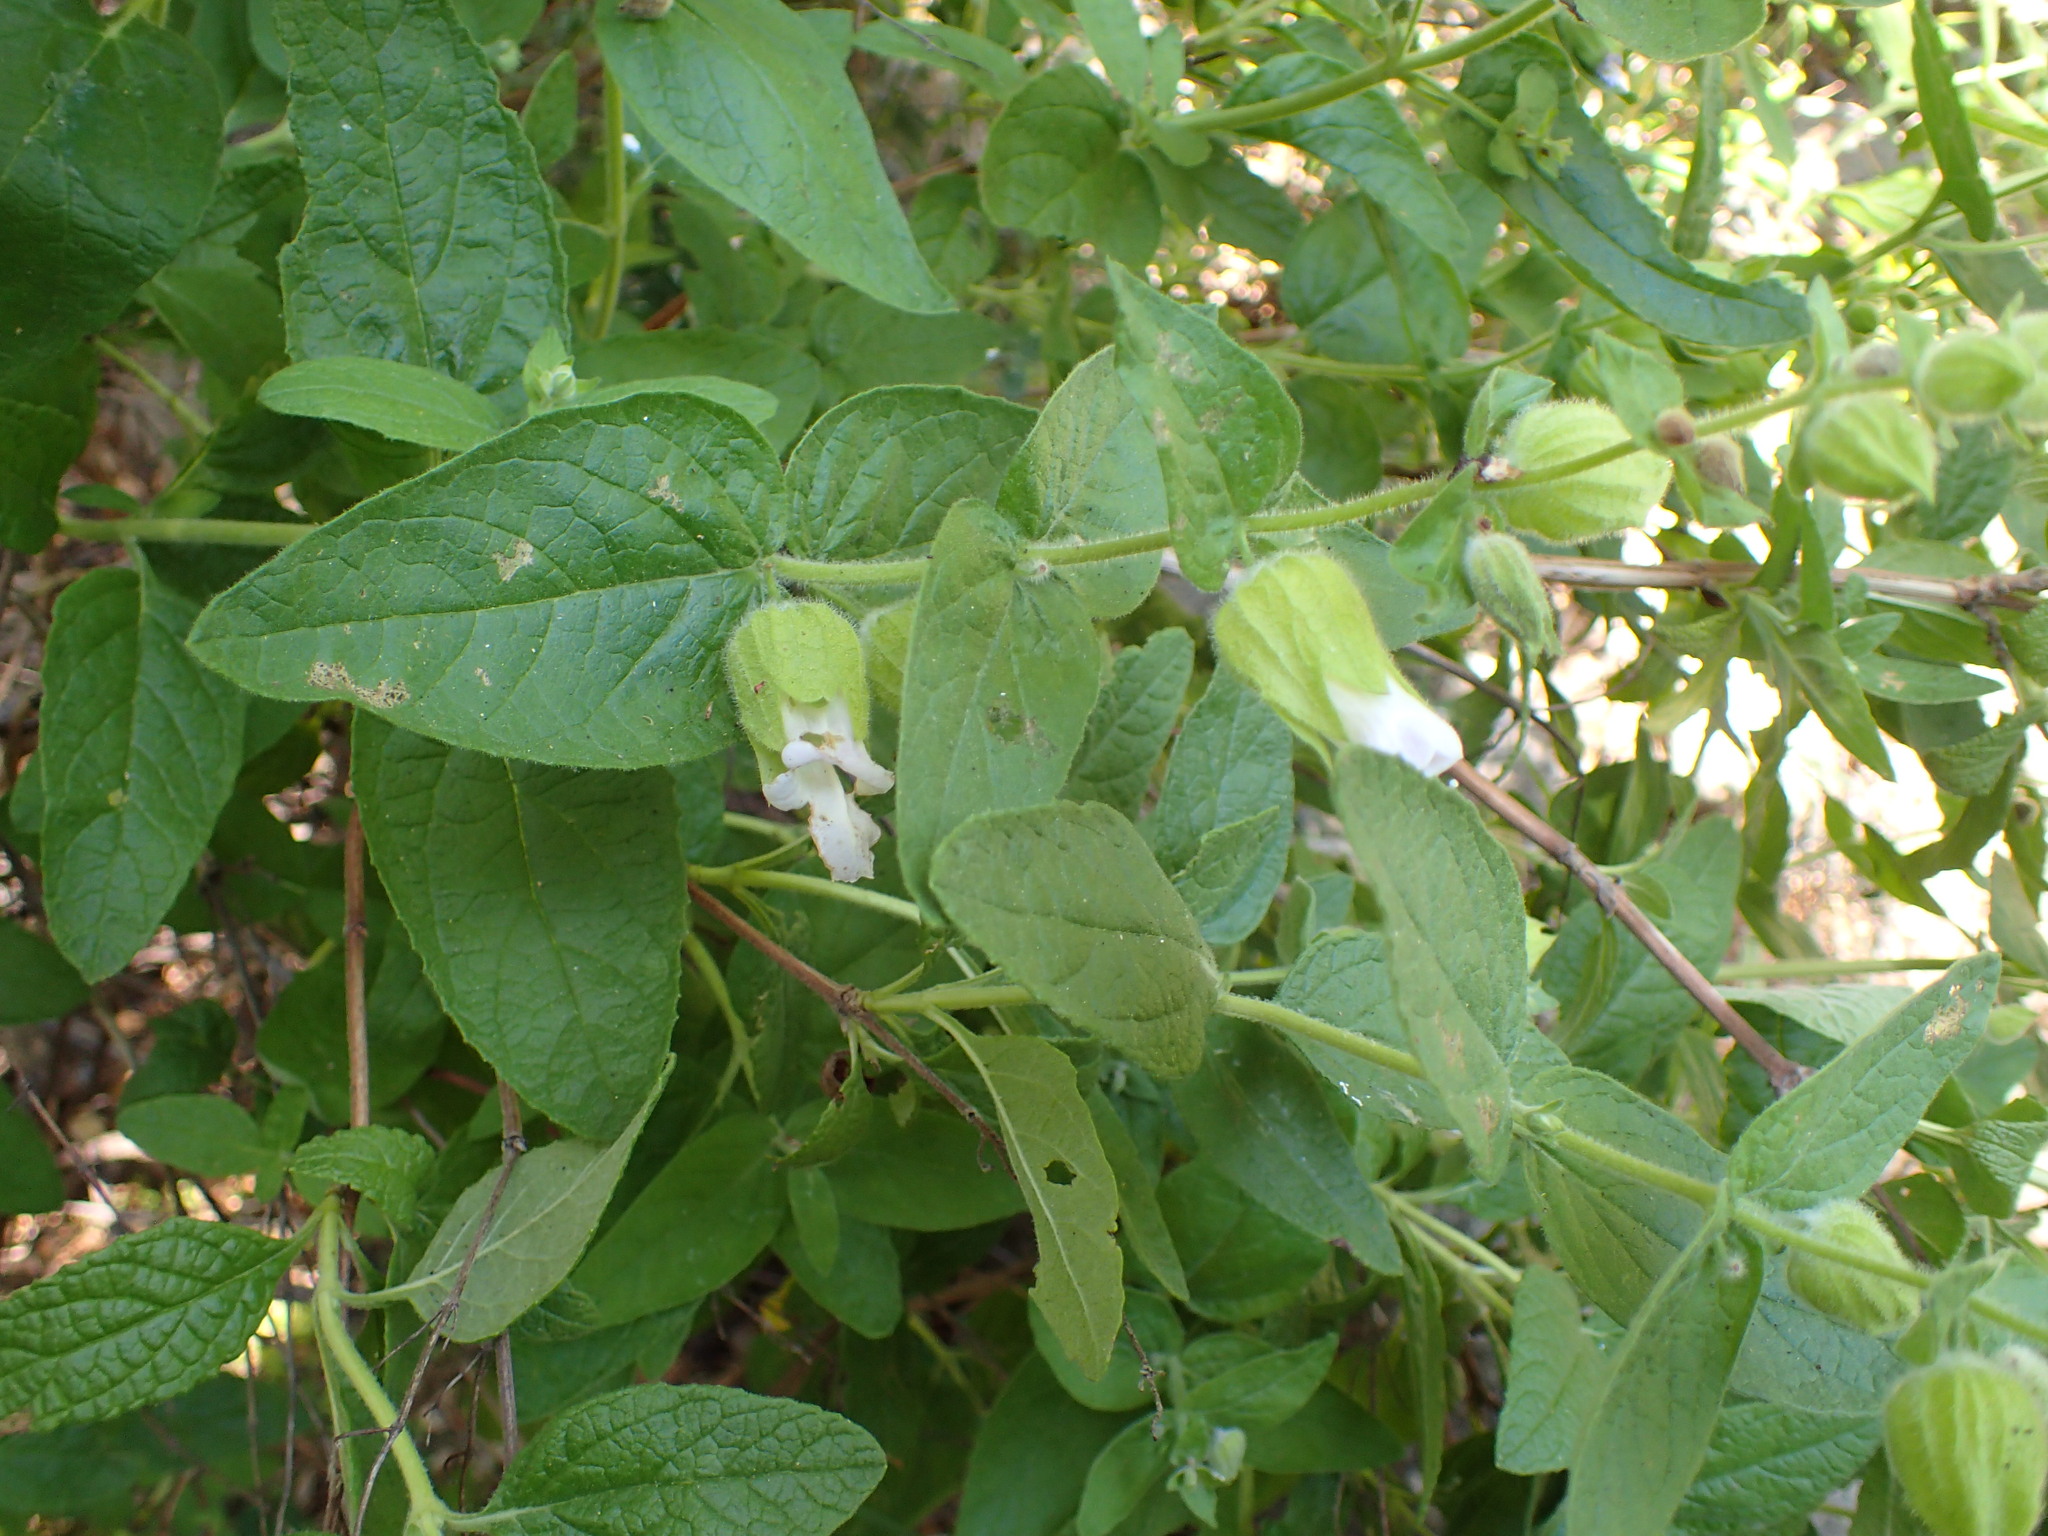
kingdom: Plantae
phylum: Tracheophyta
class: Magnoliopsida
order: Lamiales
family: Lamiaceae
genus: Lepechinia
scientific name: Lepechinia calycina
